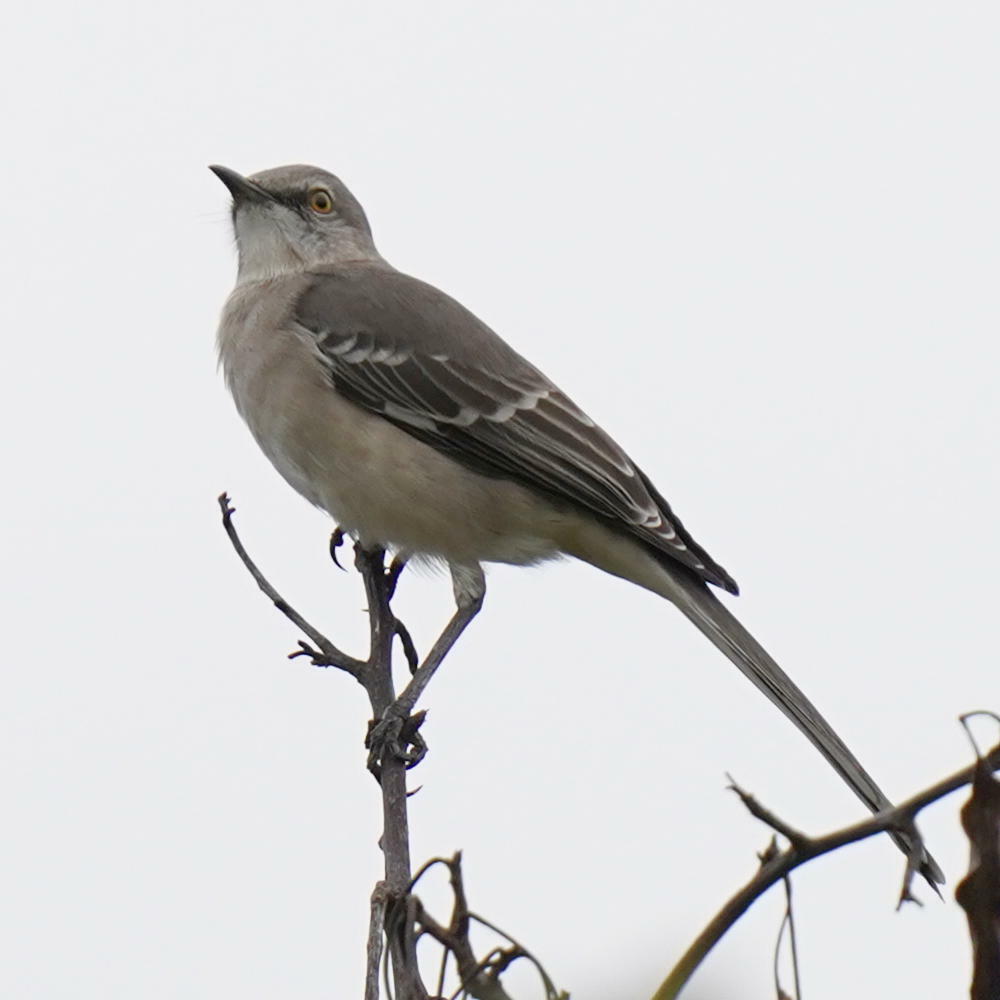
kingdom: Animalia
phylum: Chordata
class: Aves
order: Passeriformes
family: Mimidae
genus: Mimus
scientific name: Mimus polyglottos
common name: Northern mockingbird
